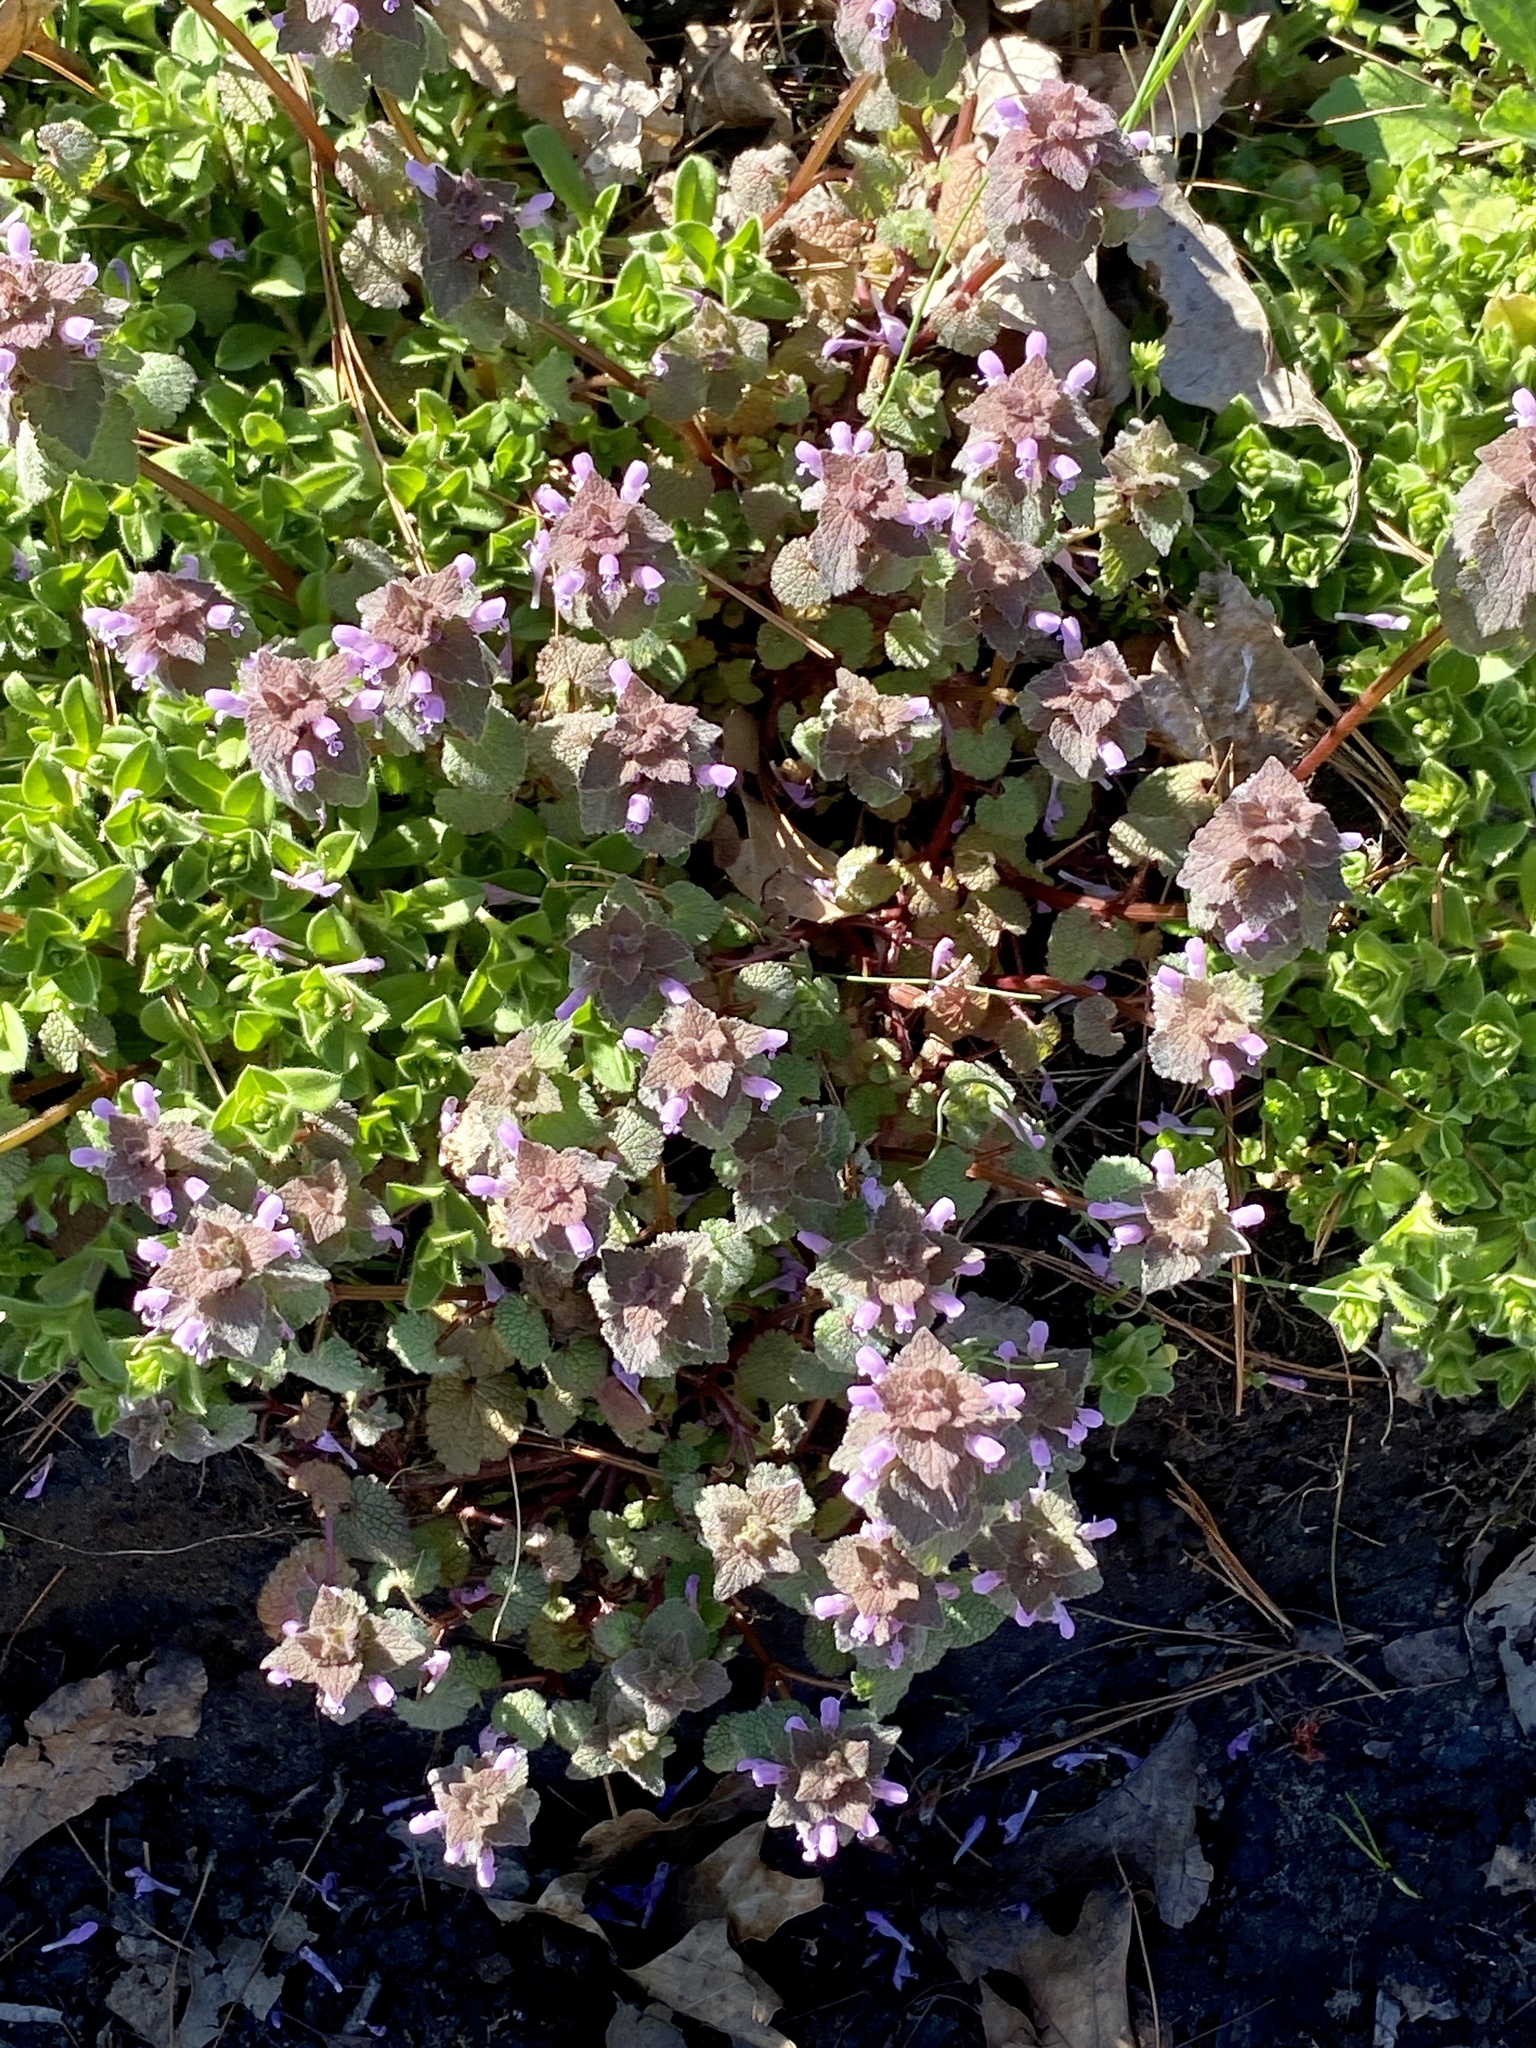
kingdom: Plantae
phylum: Tracheophyta
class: Magnoliopsida
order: Lamiales
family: Lamiaceae
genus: Lamium
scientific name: Lamium purpureum
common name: Red dead-nettle
